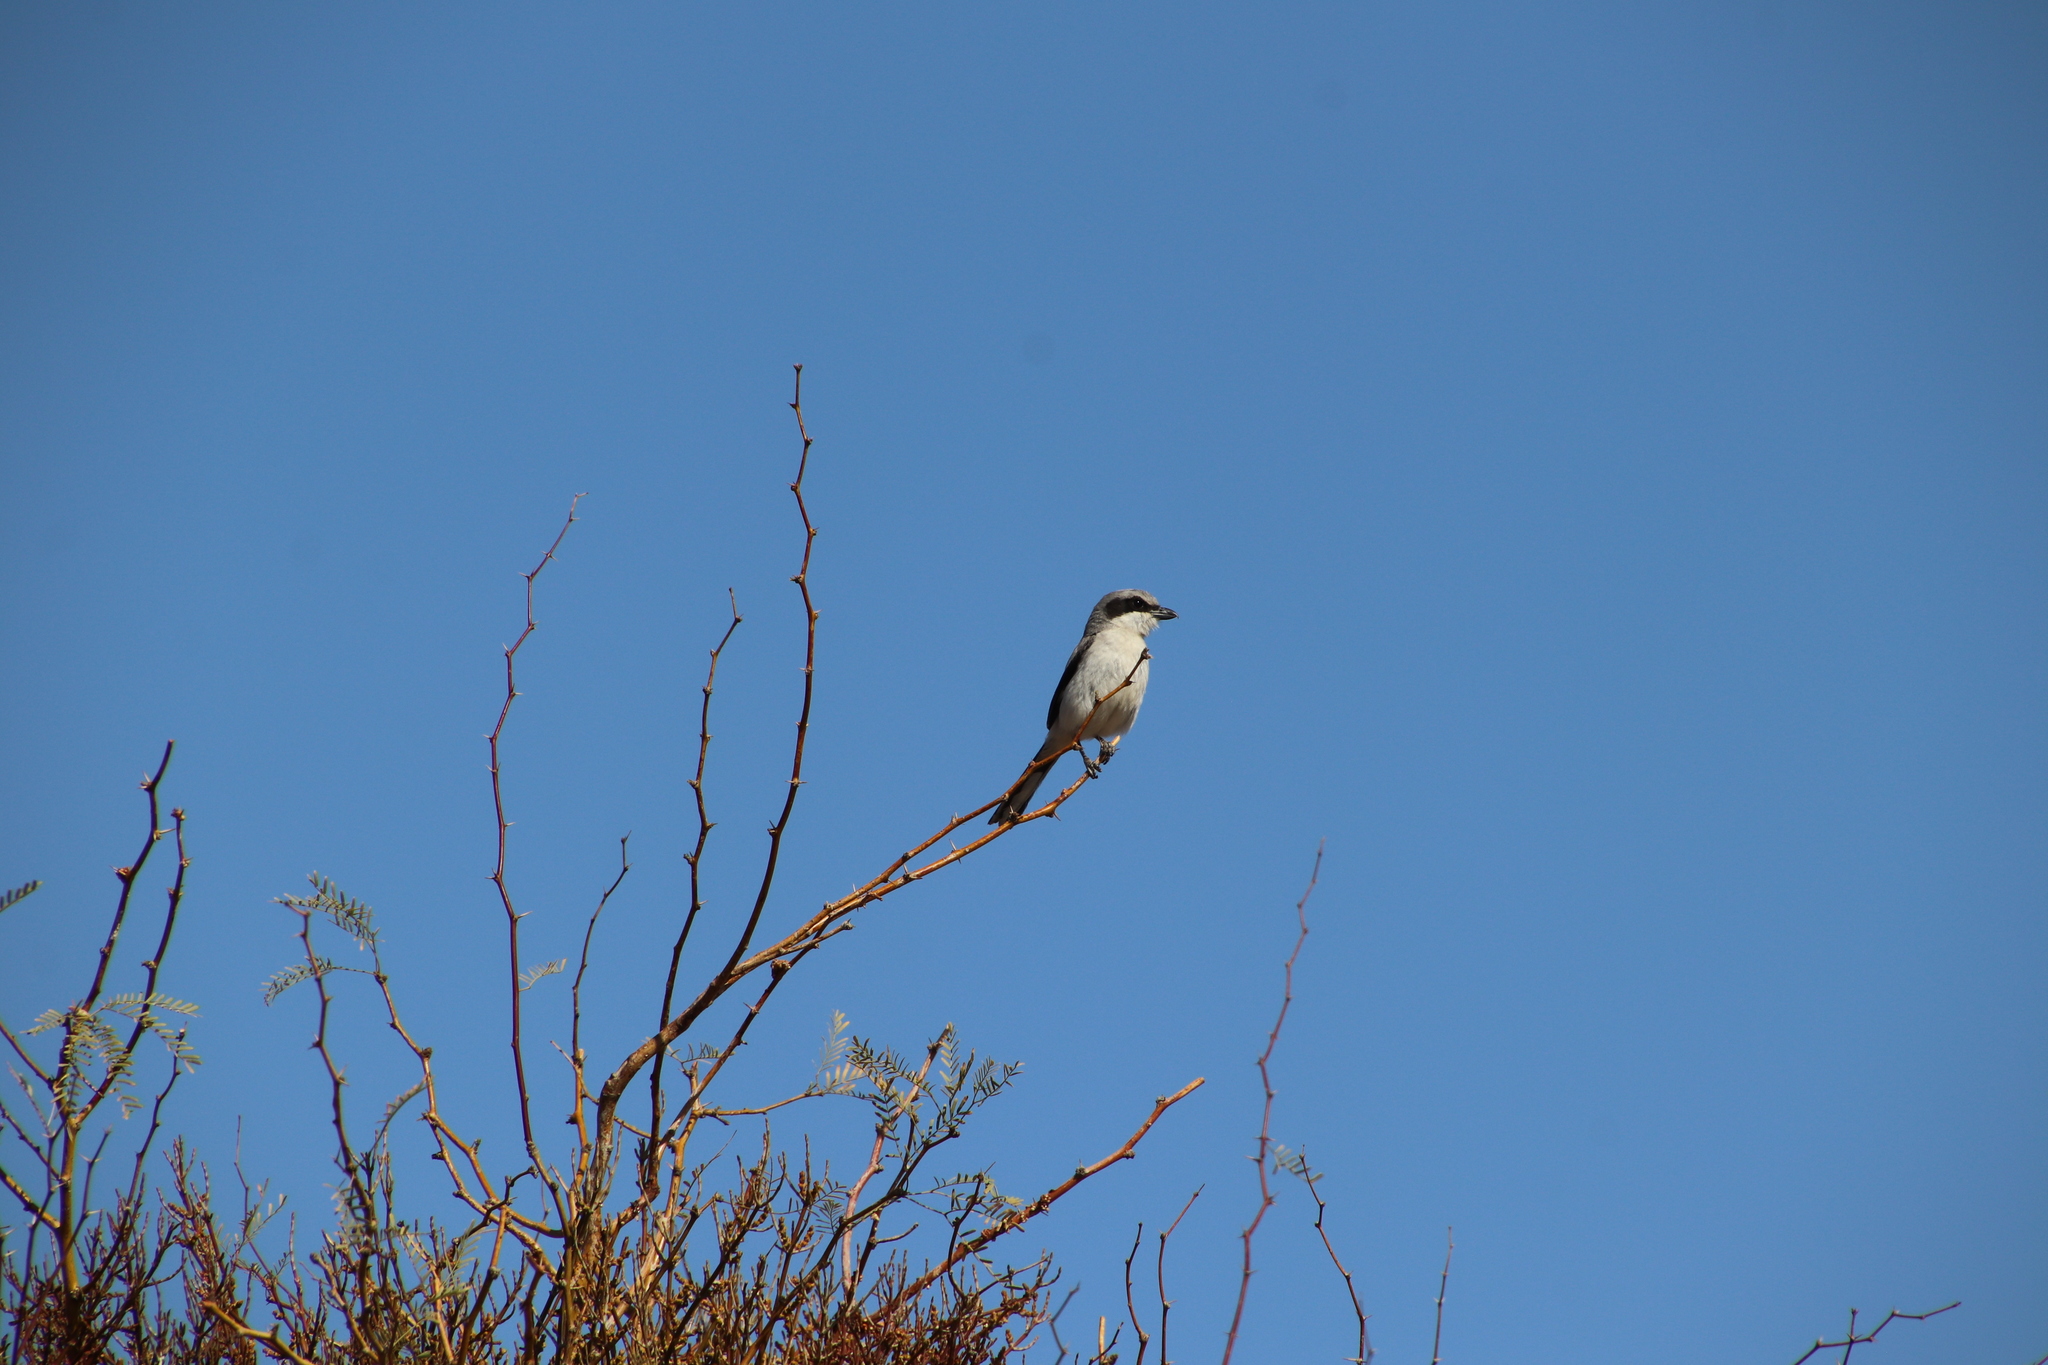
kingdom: Animalia
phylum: Chordata
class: Aves
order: Passeriformes
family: Laniidae
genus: Lanius
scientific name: Lanius ludovicianus
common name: Loggerhead shrike
